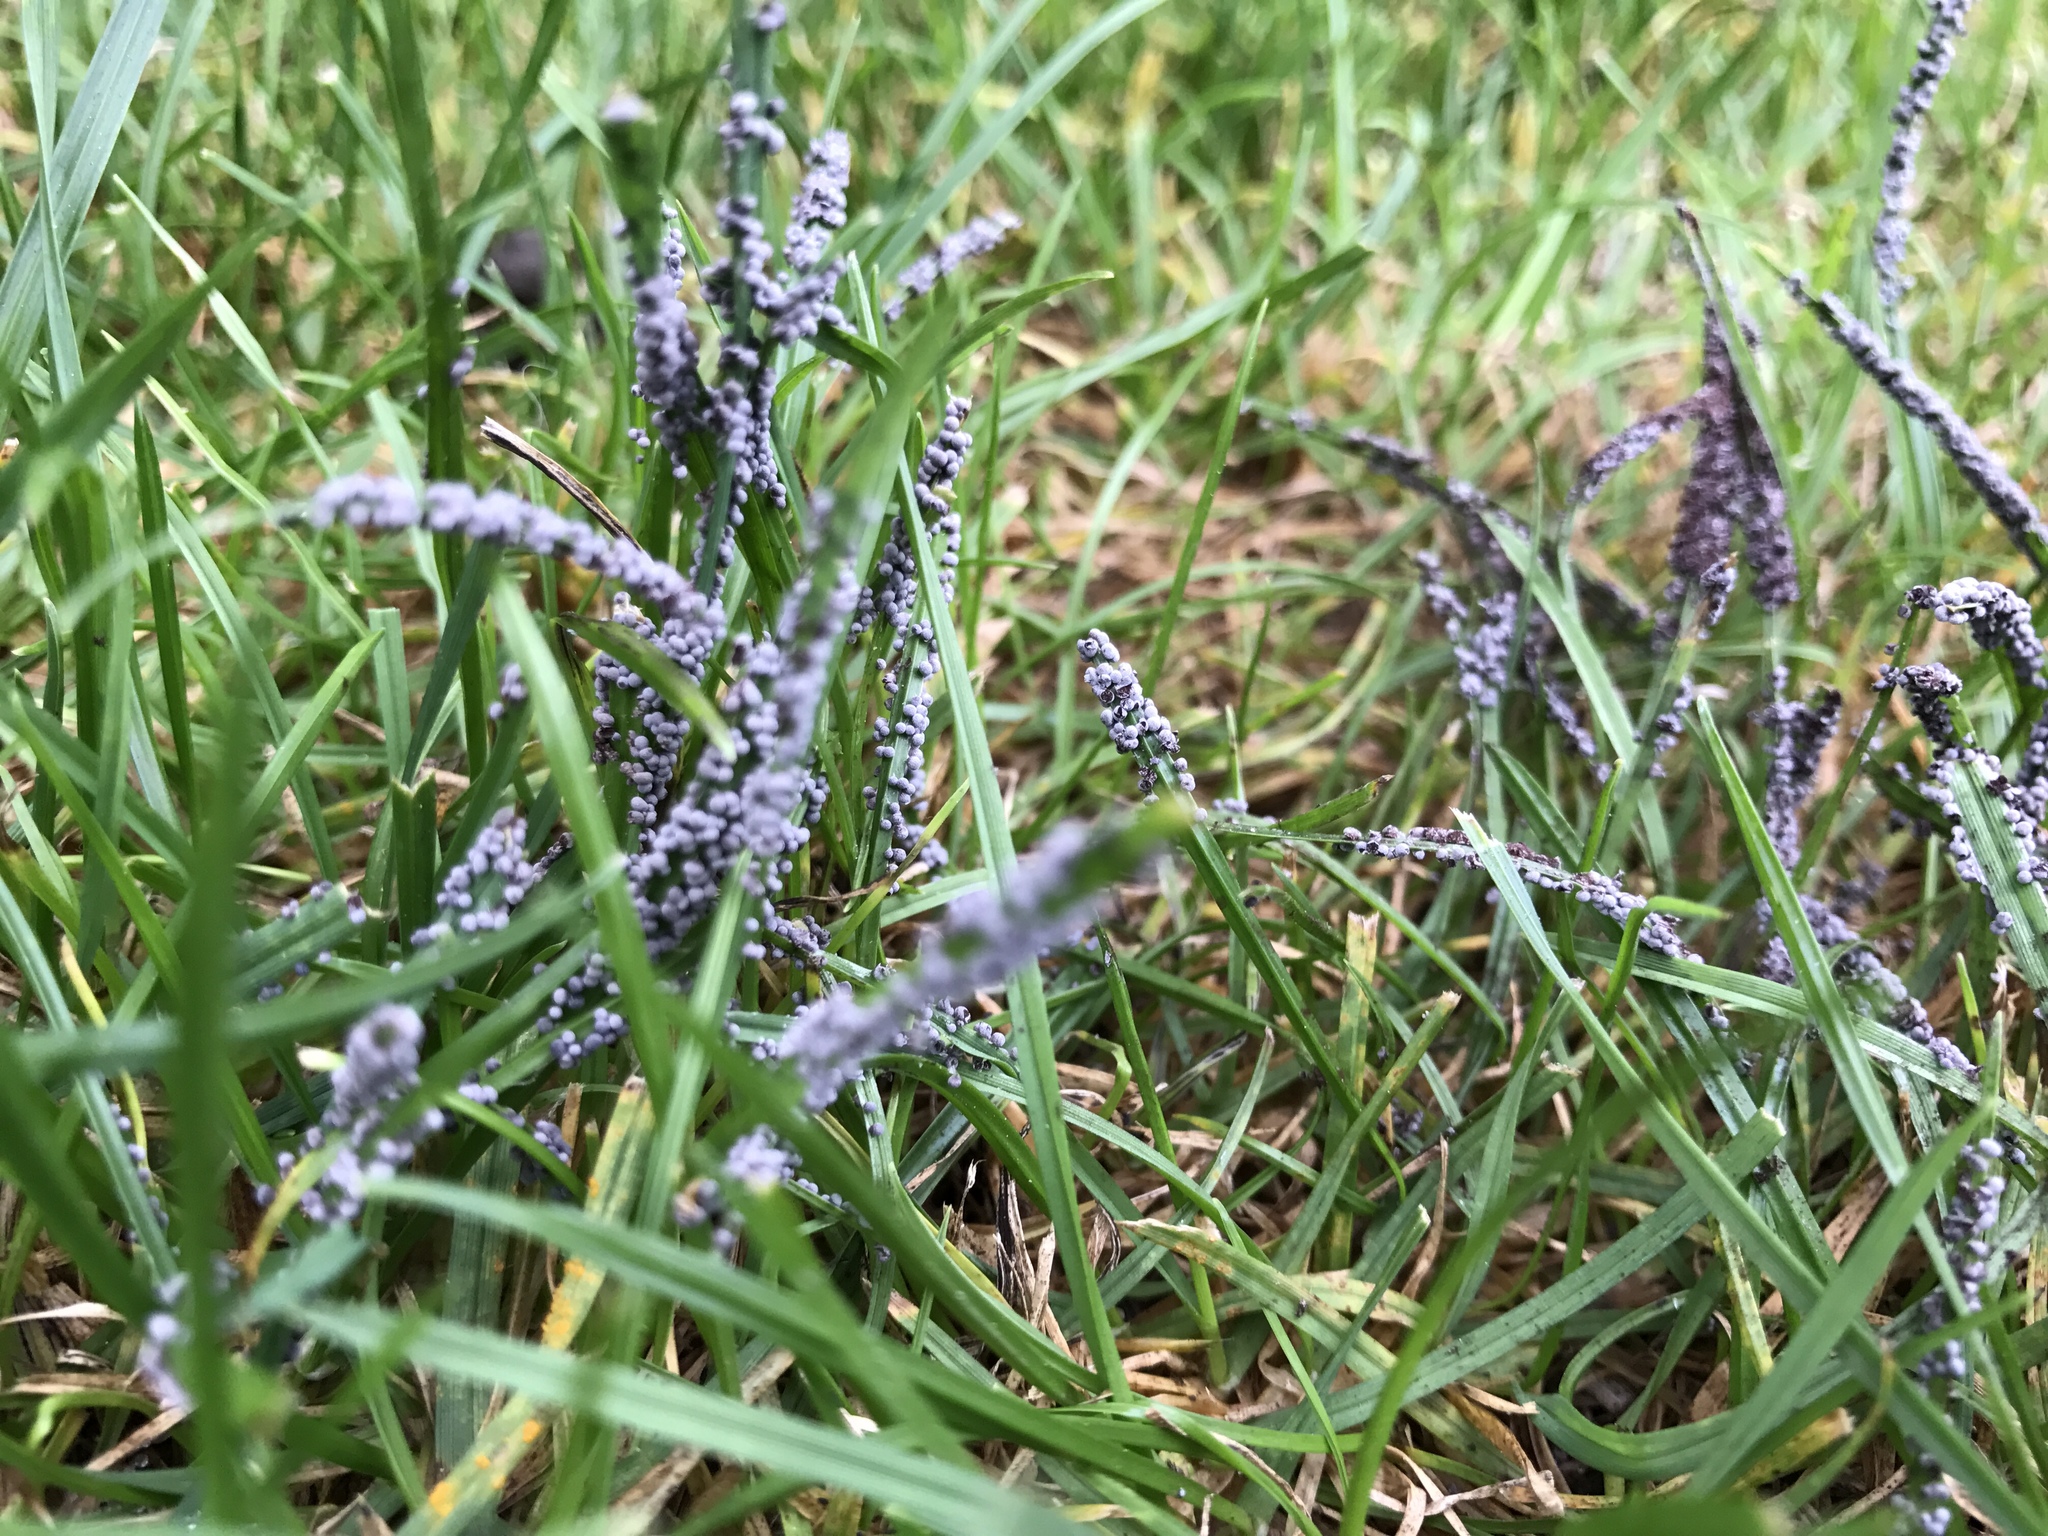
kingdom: Protozoa
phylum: Mycetozoa
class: Myxomycetes
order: Physarales
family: Physaraceae
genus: Physarum
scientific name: Physarum cinereum
